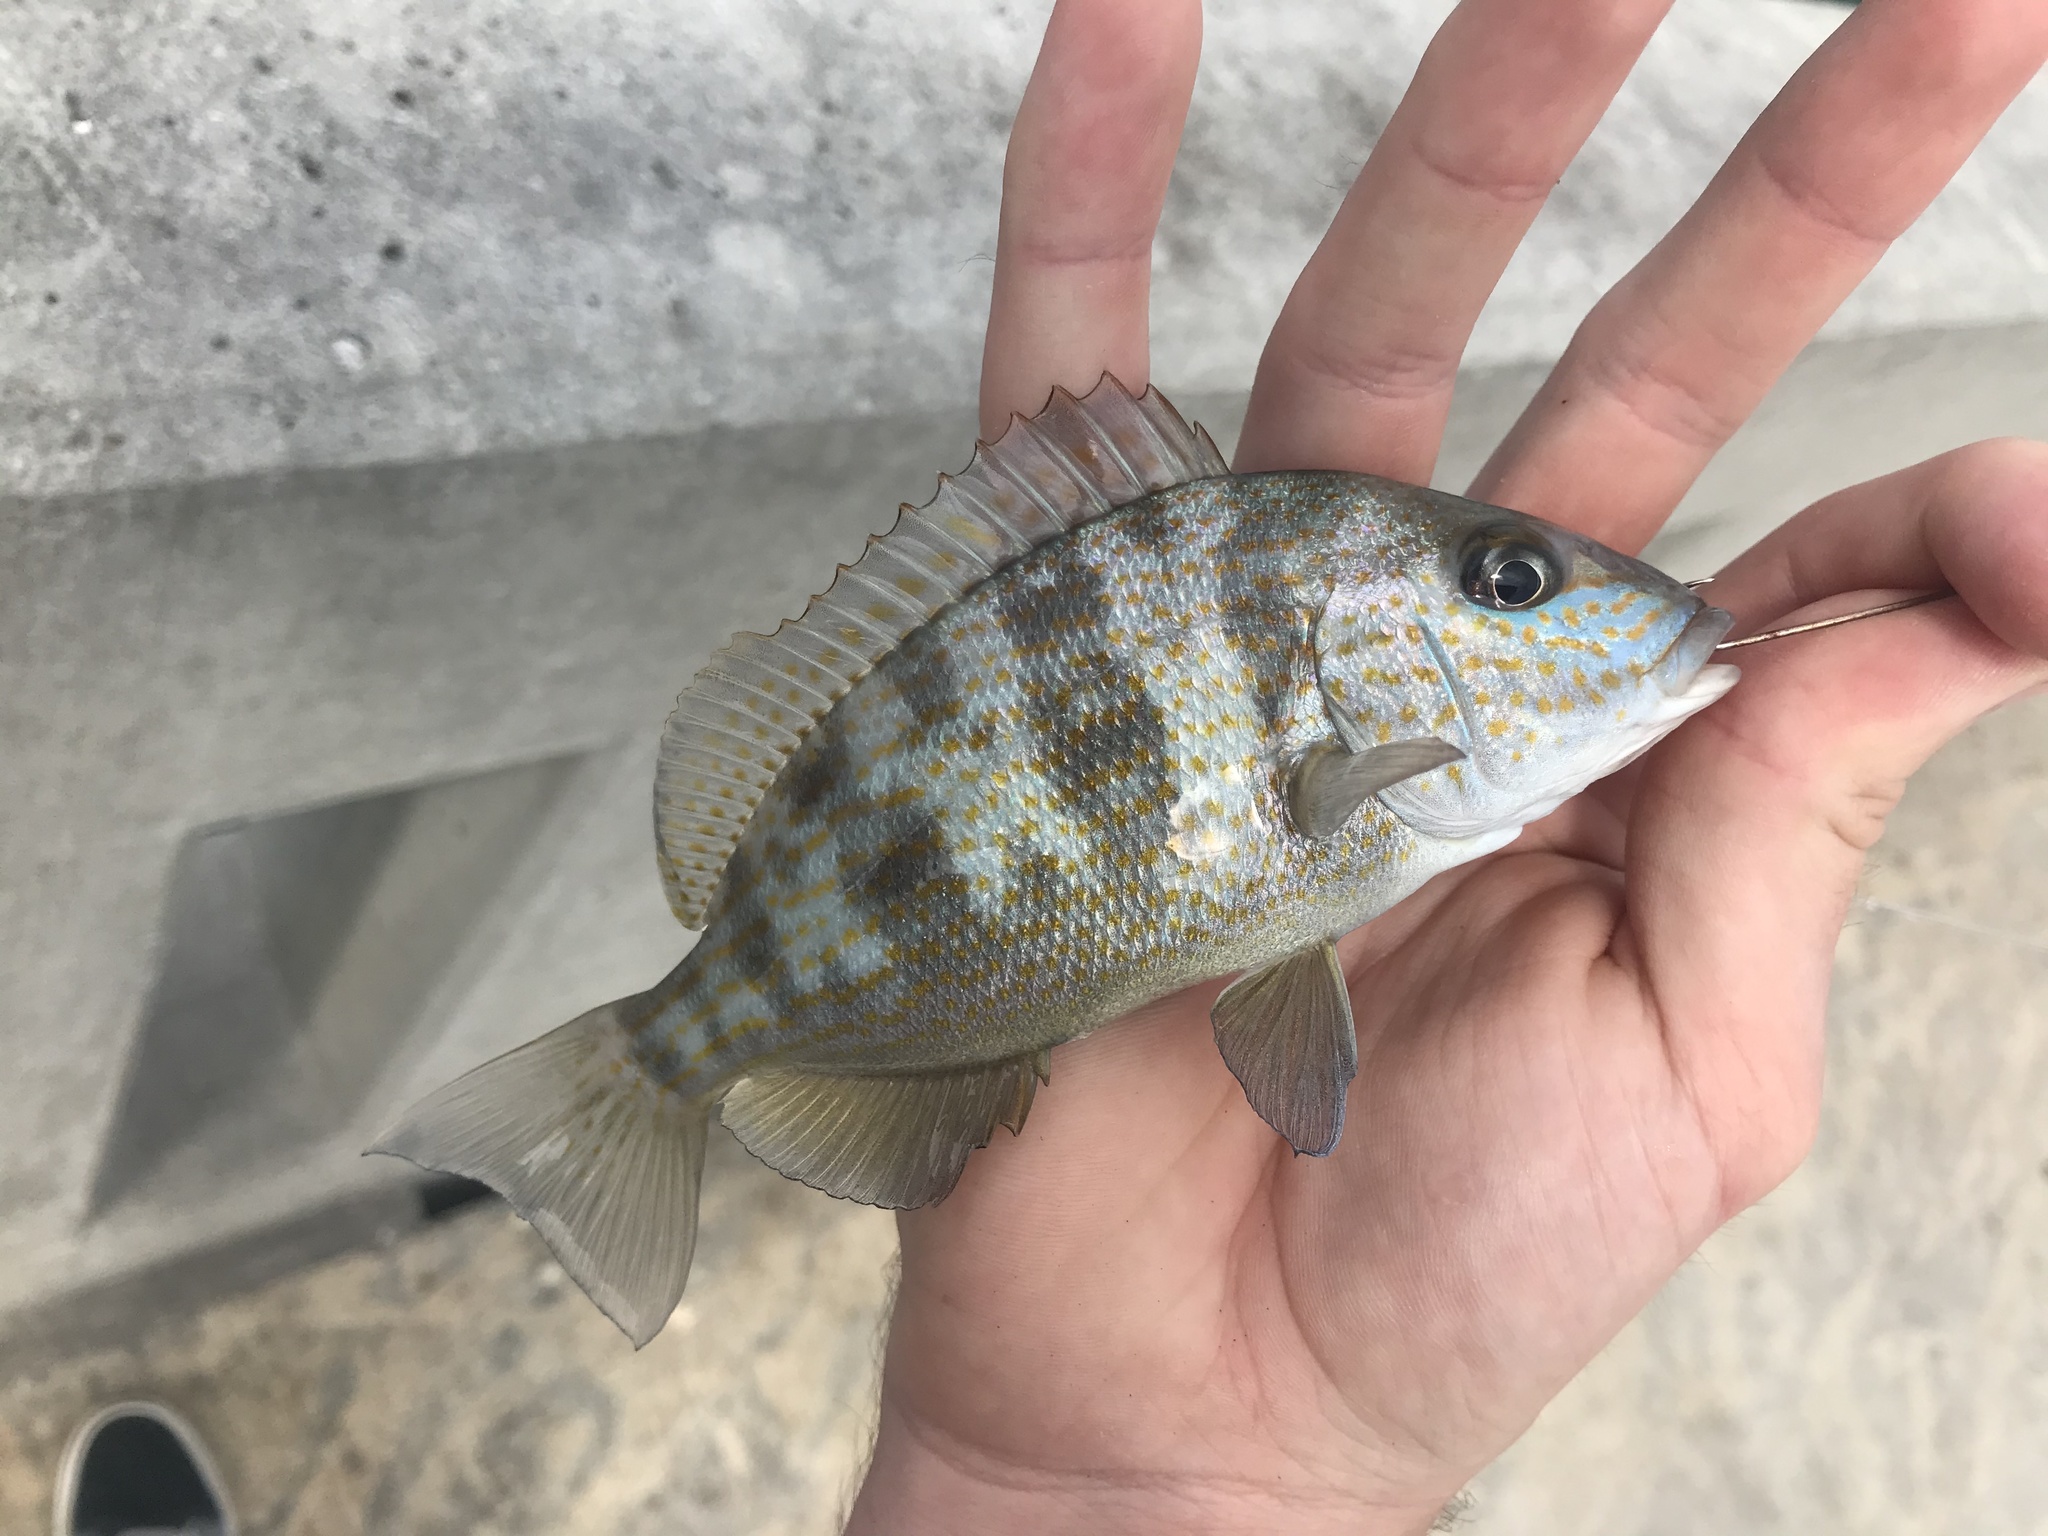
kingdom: Animalia
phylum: Chordata
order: Perciformes
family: Haemulidae
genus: Orthopristis
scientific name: Orthopristis chrysoptera
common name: Pigfish
